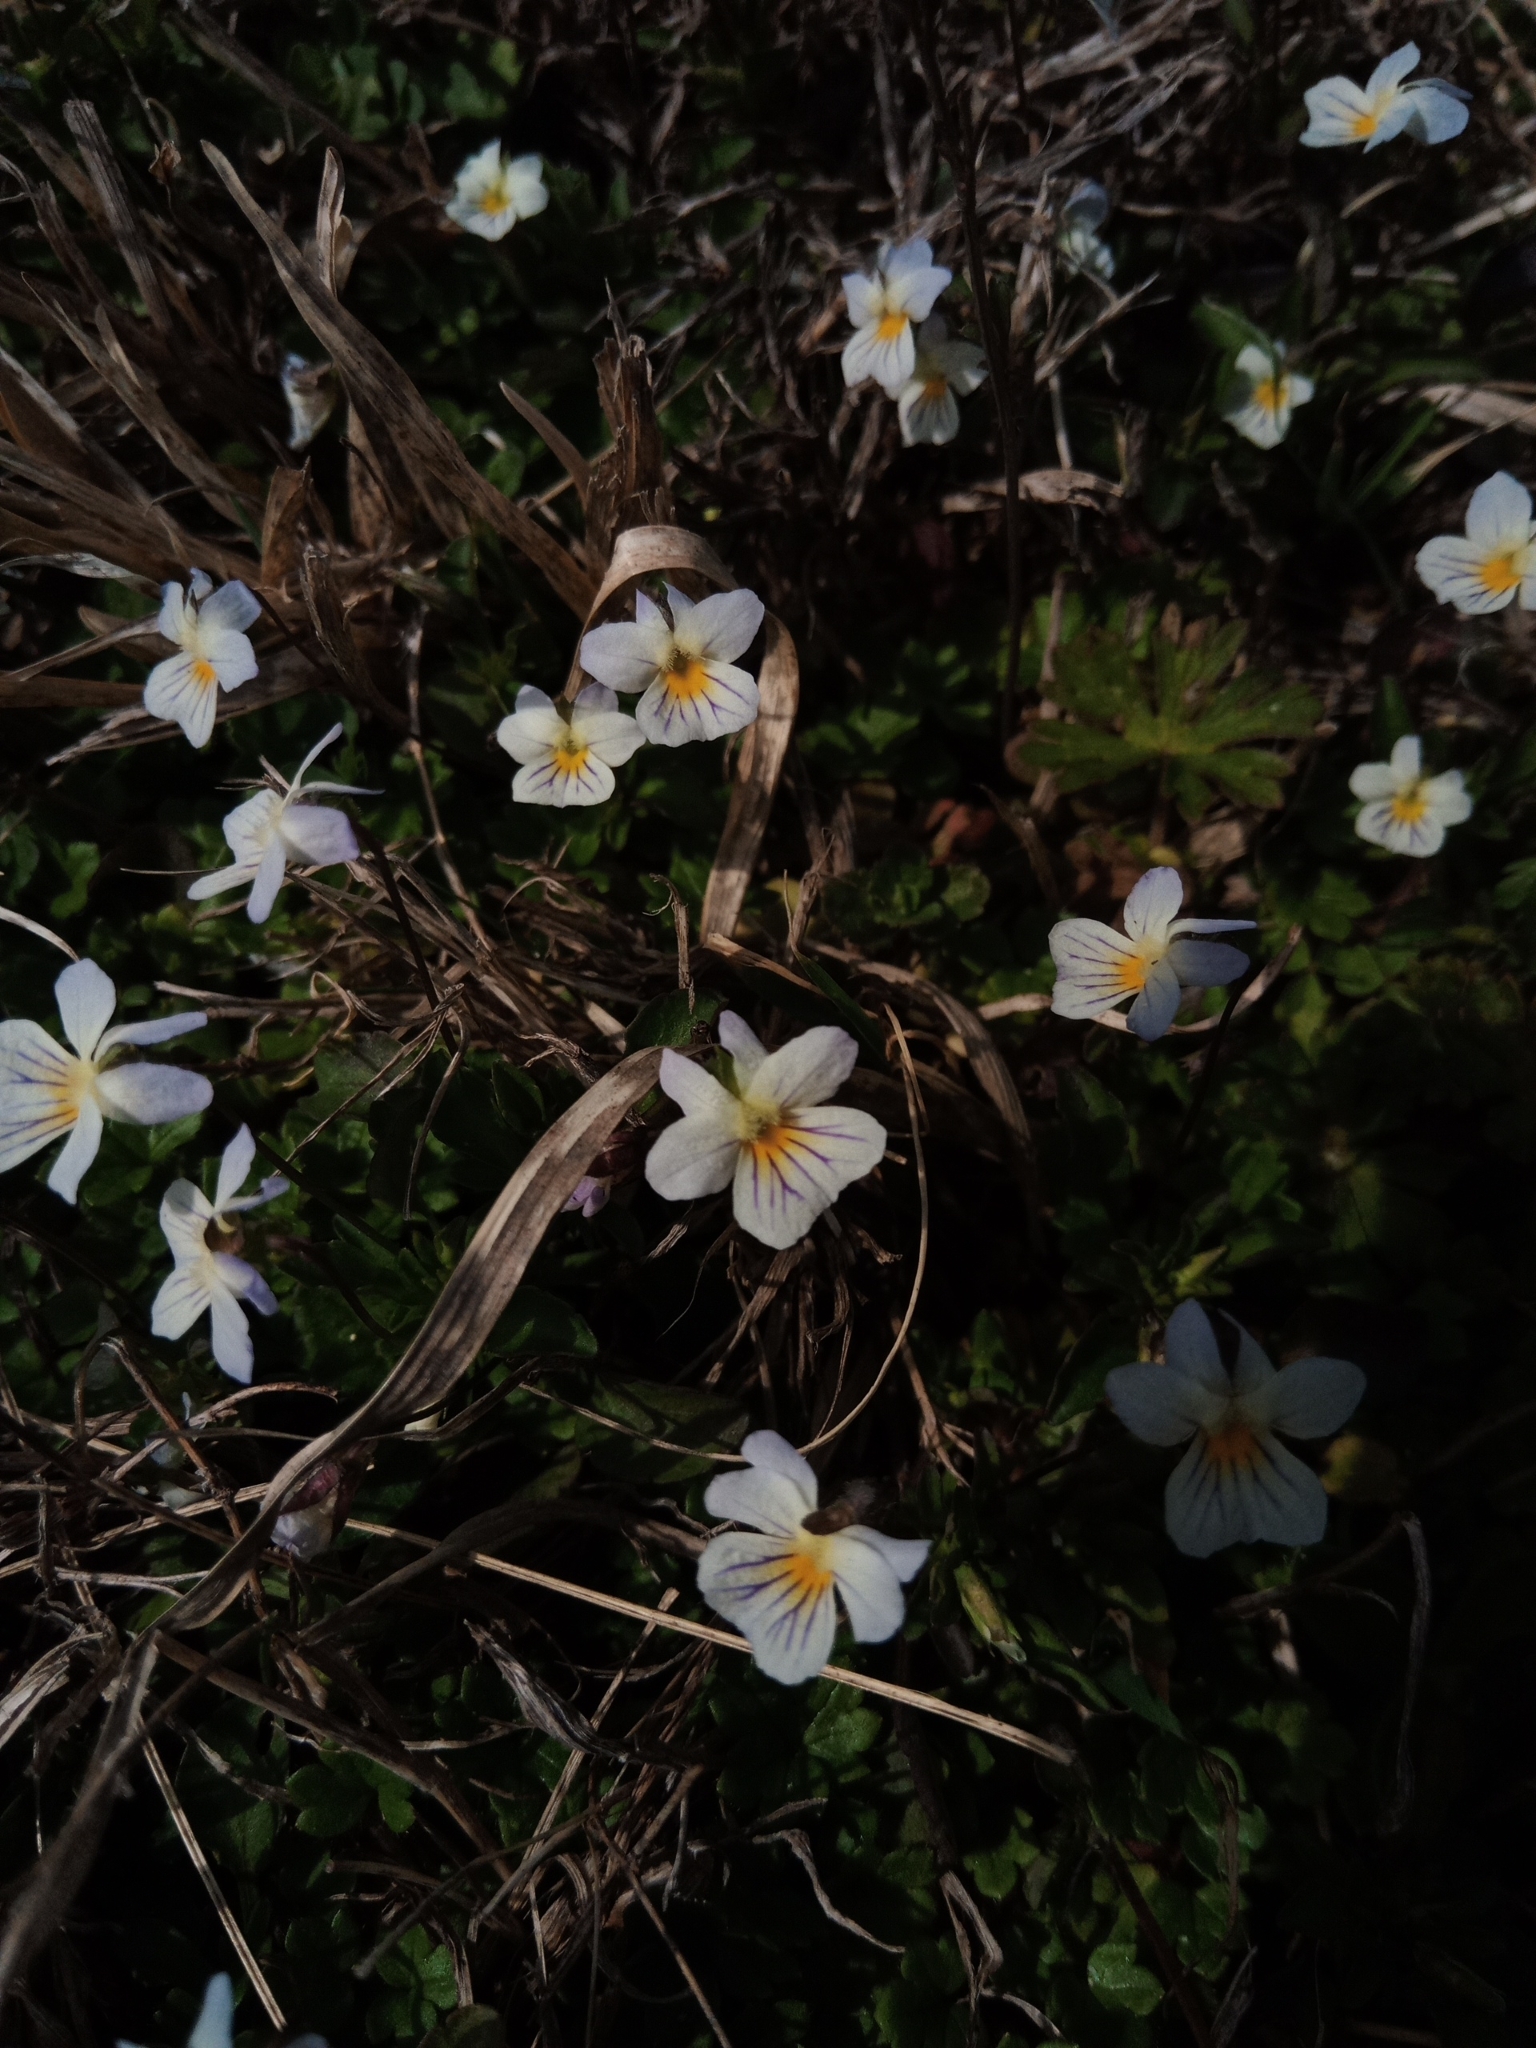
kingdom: Plantae
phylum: Tracheophyta
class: Magnoliopsida
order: Malpighiales
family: Violaceae
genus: Viola
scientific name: Viola rafinesquei
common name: American field pansy
